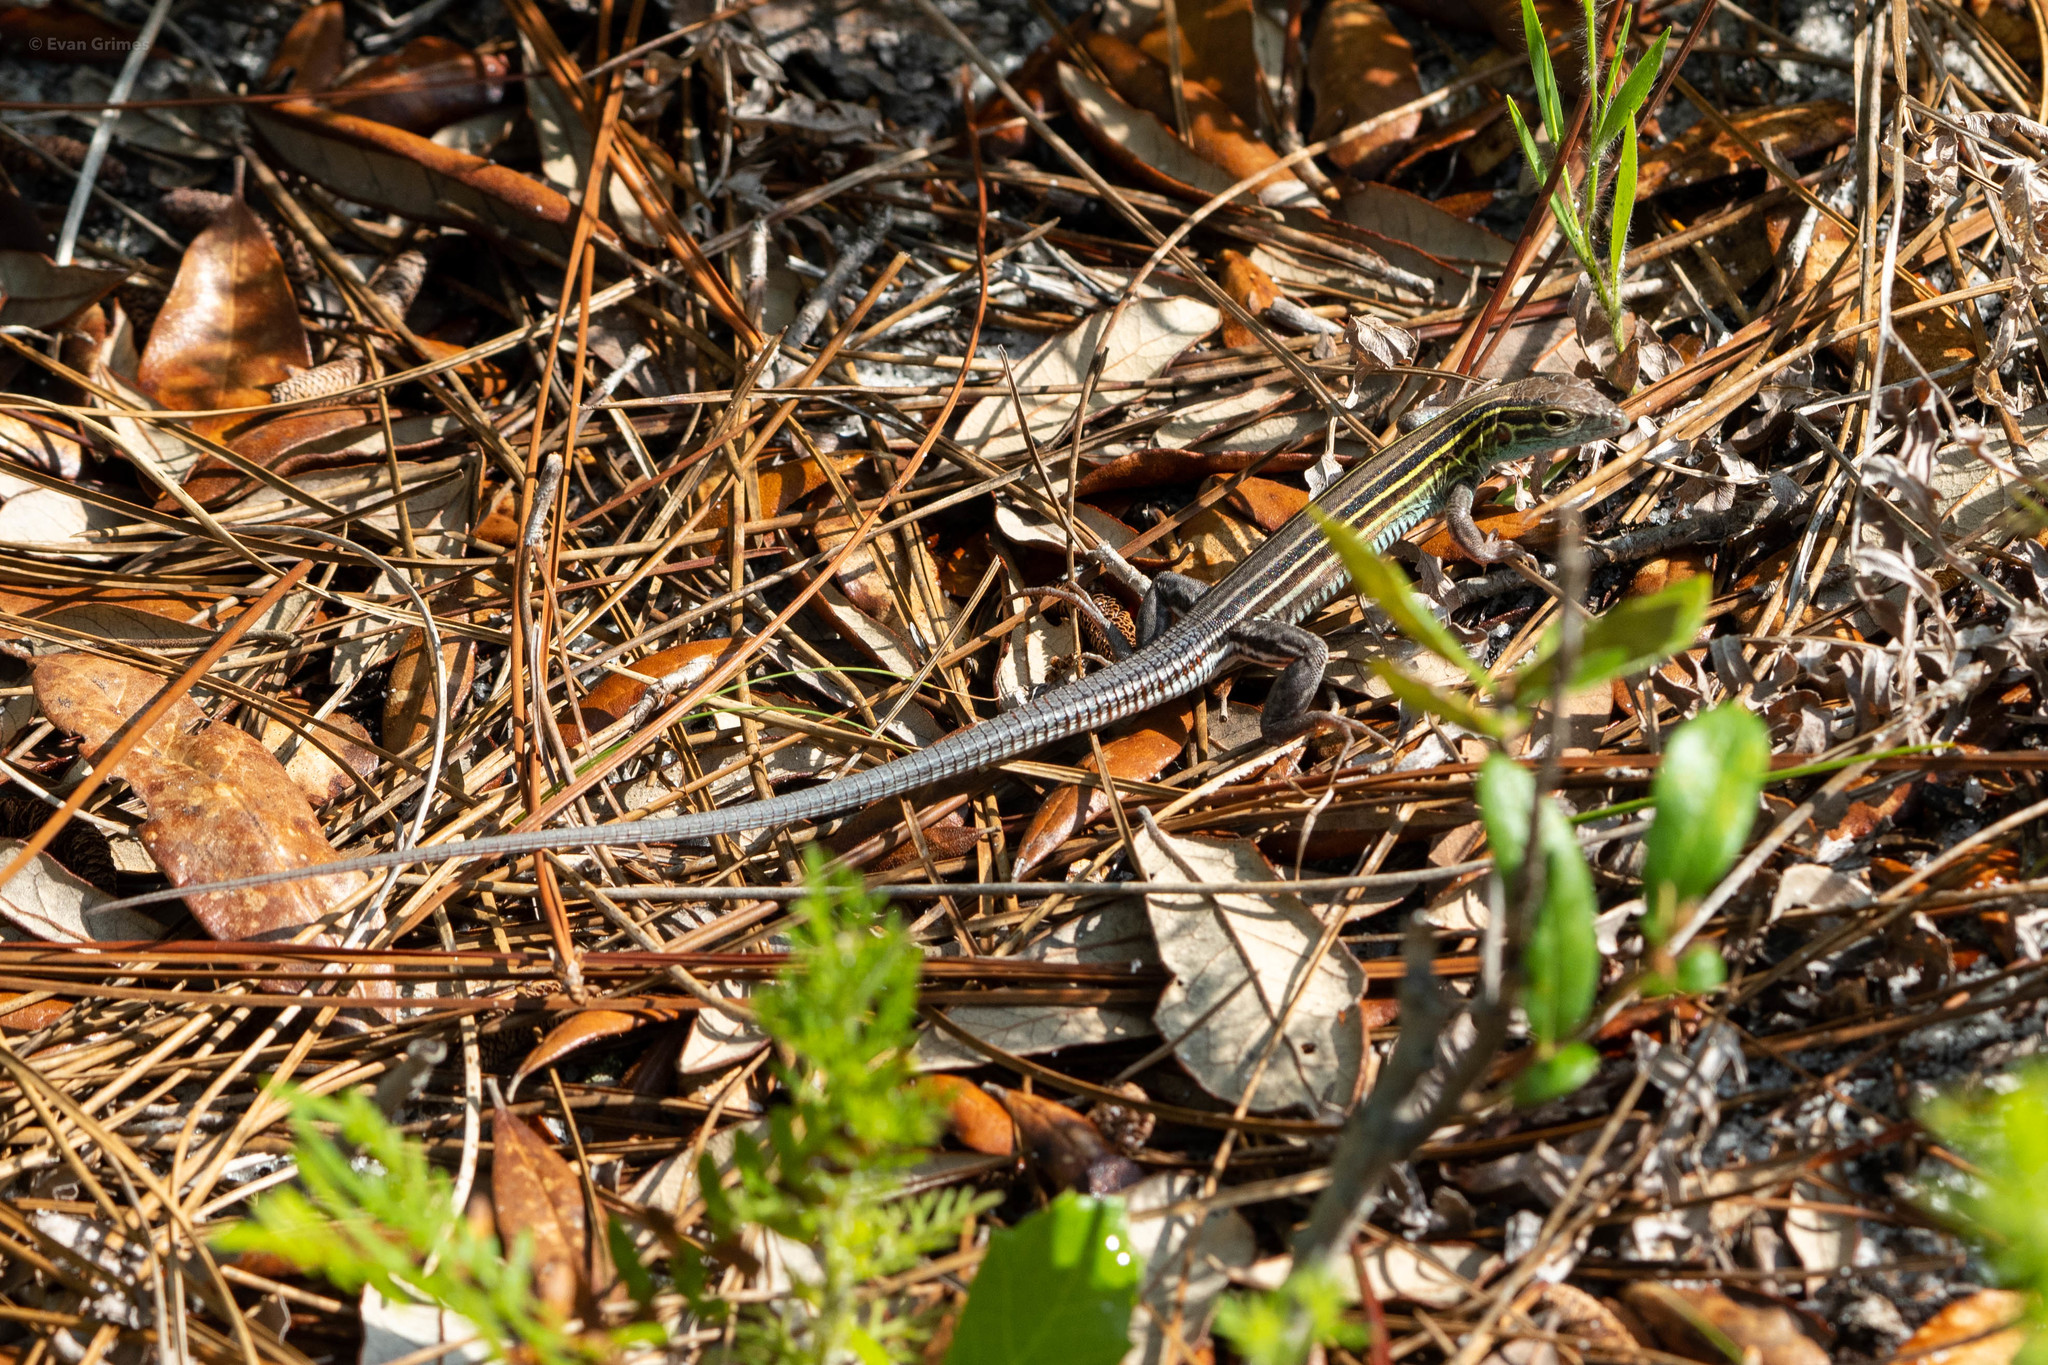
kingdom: Animalia
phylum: Chordata
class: Squamata
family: Teiidae
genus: Aspidoscelis
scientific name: Aspidoscelis sexlineatus
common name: Six-lined racerunner
